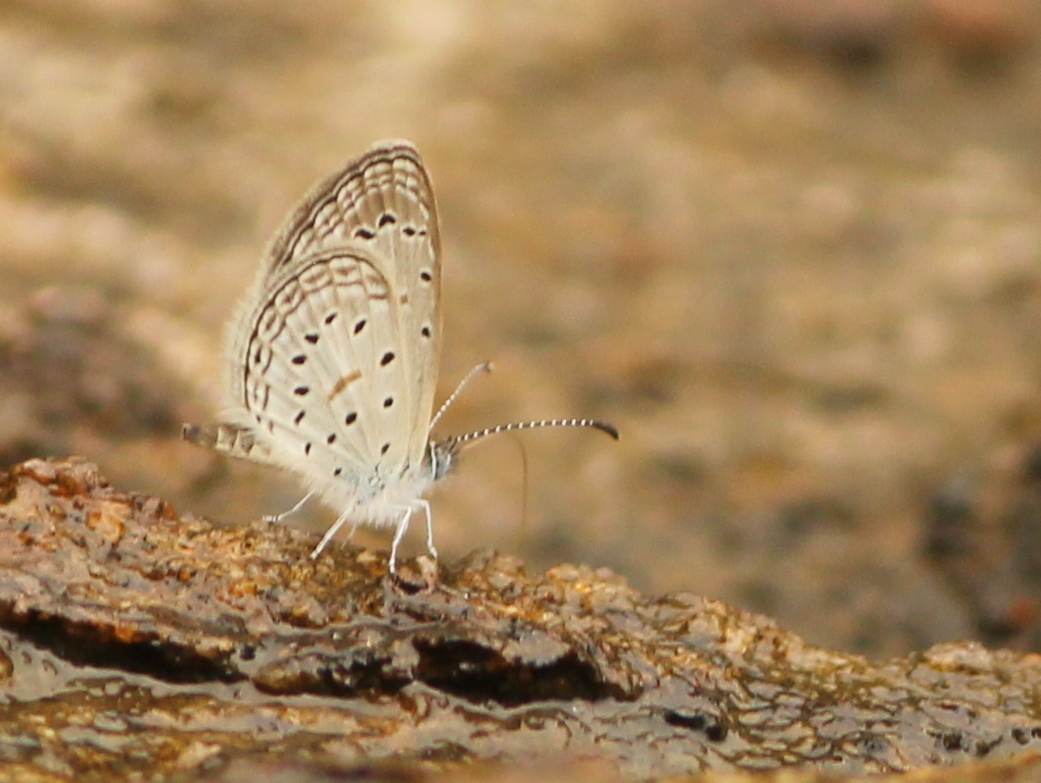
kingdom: Animalia
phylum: Arthropoda
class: Insecta
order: Lepidoptera
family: Lycaenidae
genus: Zizula
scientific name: Zizula hylax
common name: Gaika blue
